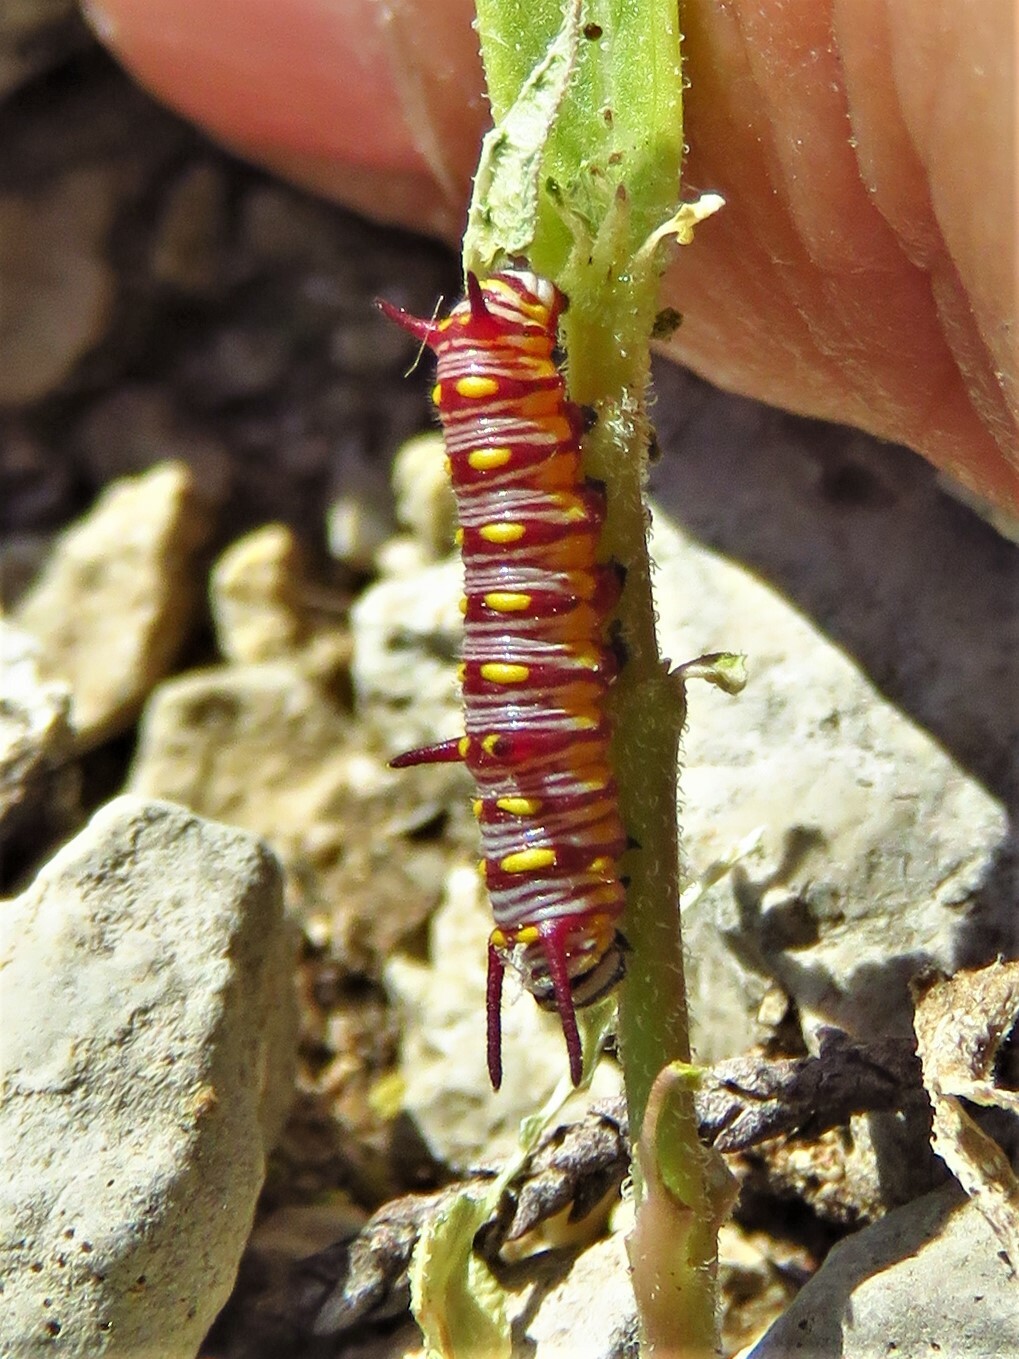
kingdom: Animalia
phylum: Arthropoda
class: Insecta
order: Lepidoptera
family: Nymphalidae
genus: Danaus
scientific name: Danaus gilippus
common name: Queen
